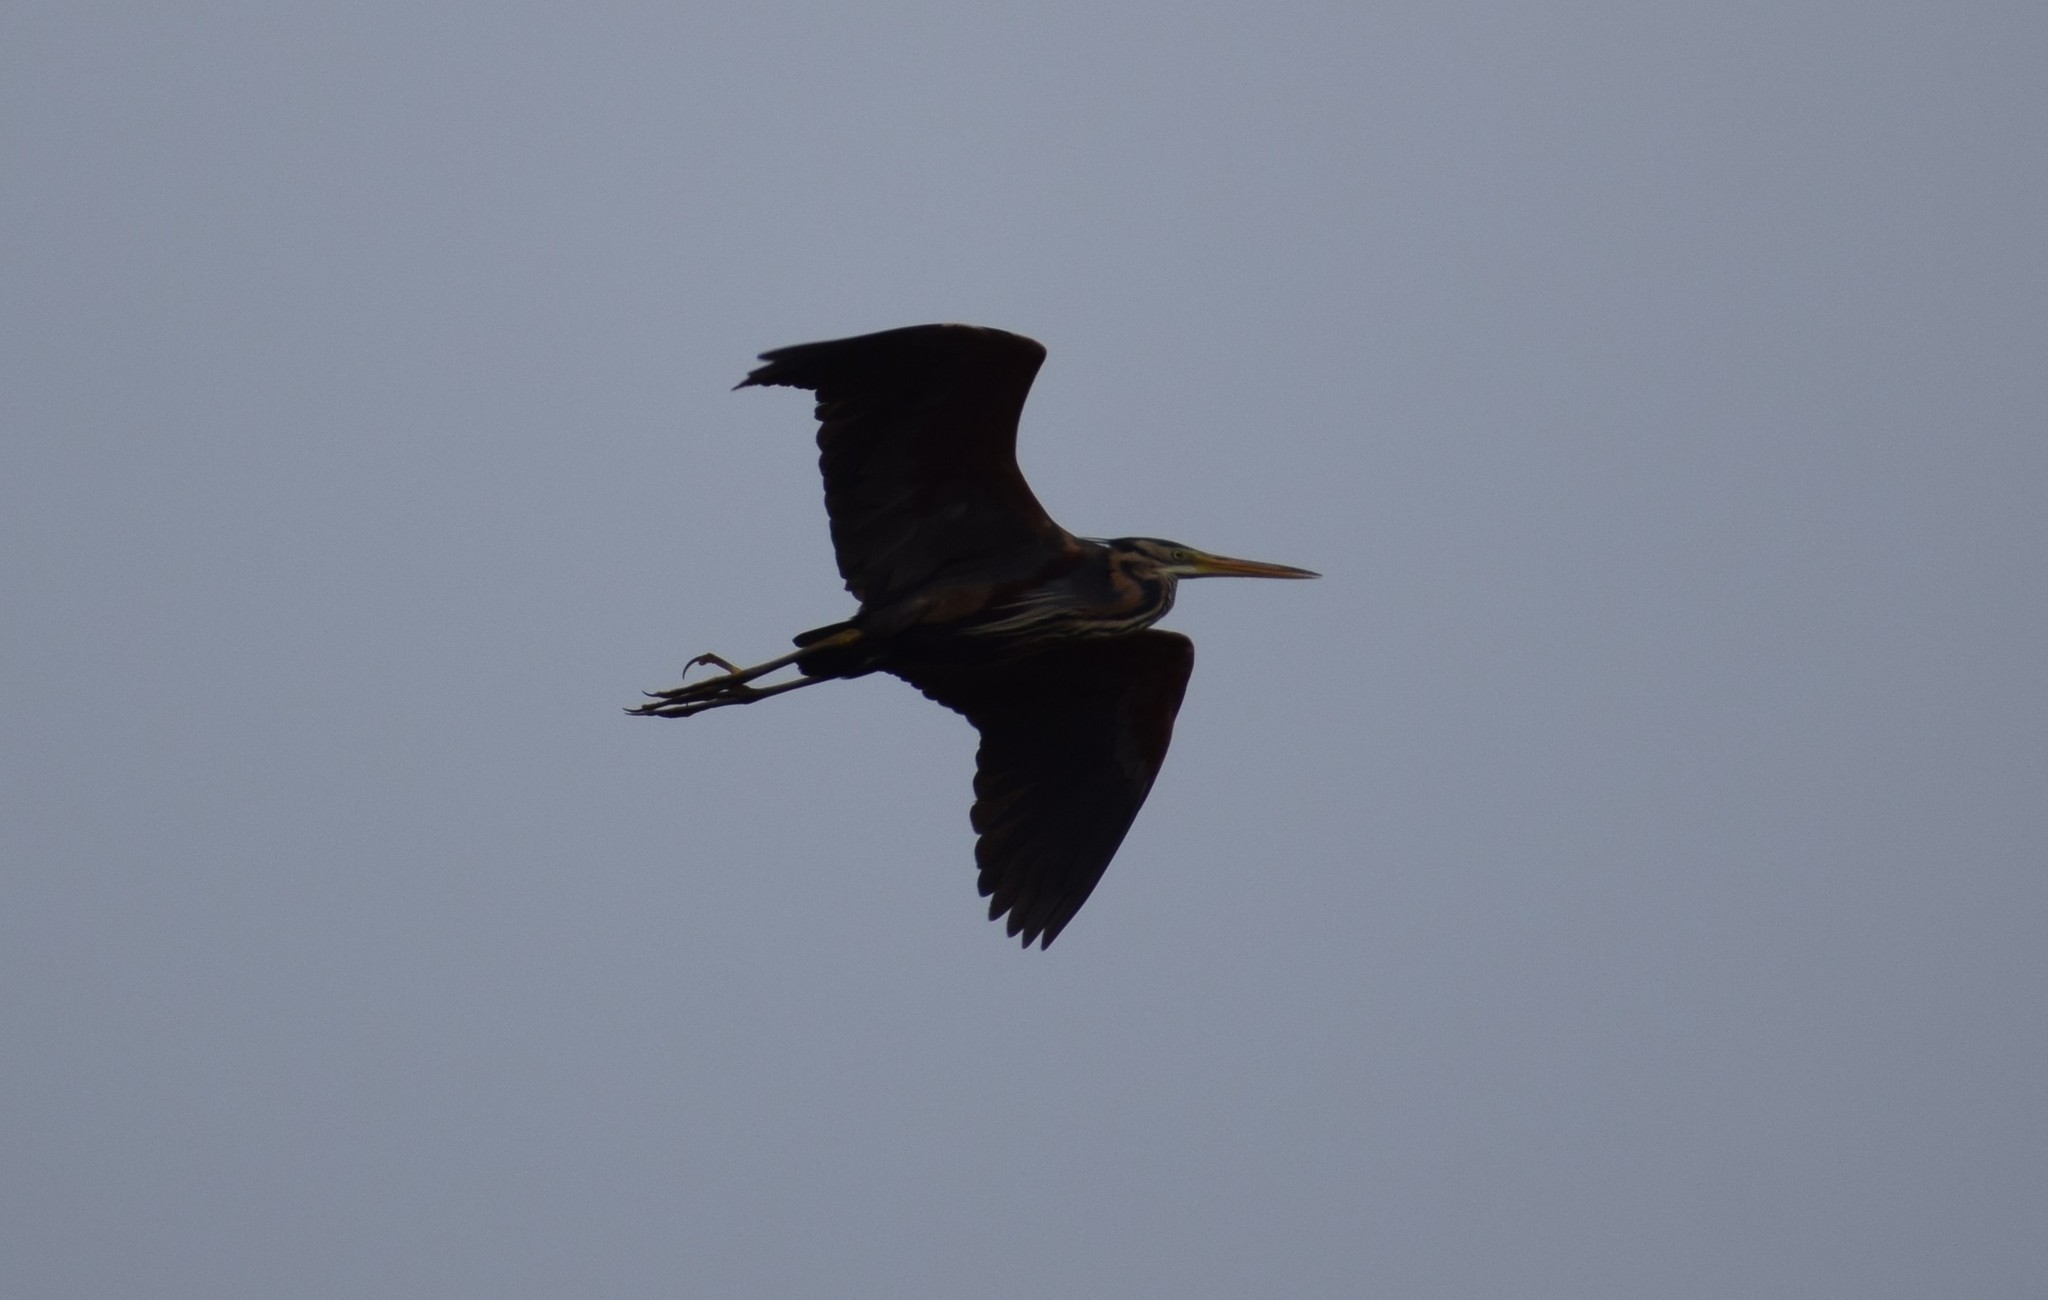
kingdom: Animalia
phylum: Chordata
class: Aves
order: Pelecaniformes
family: Ardeidae
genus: Ardea
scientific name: Ardea cinerea
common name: Grey heron
